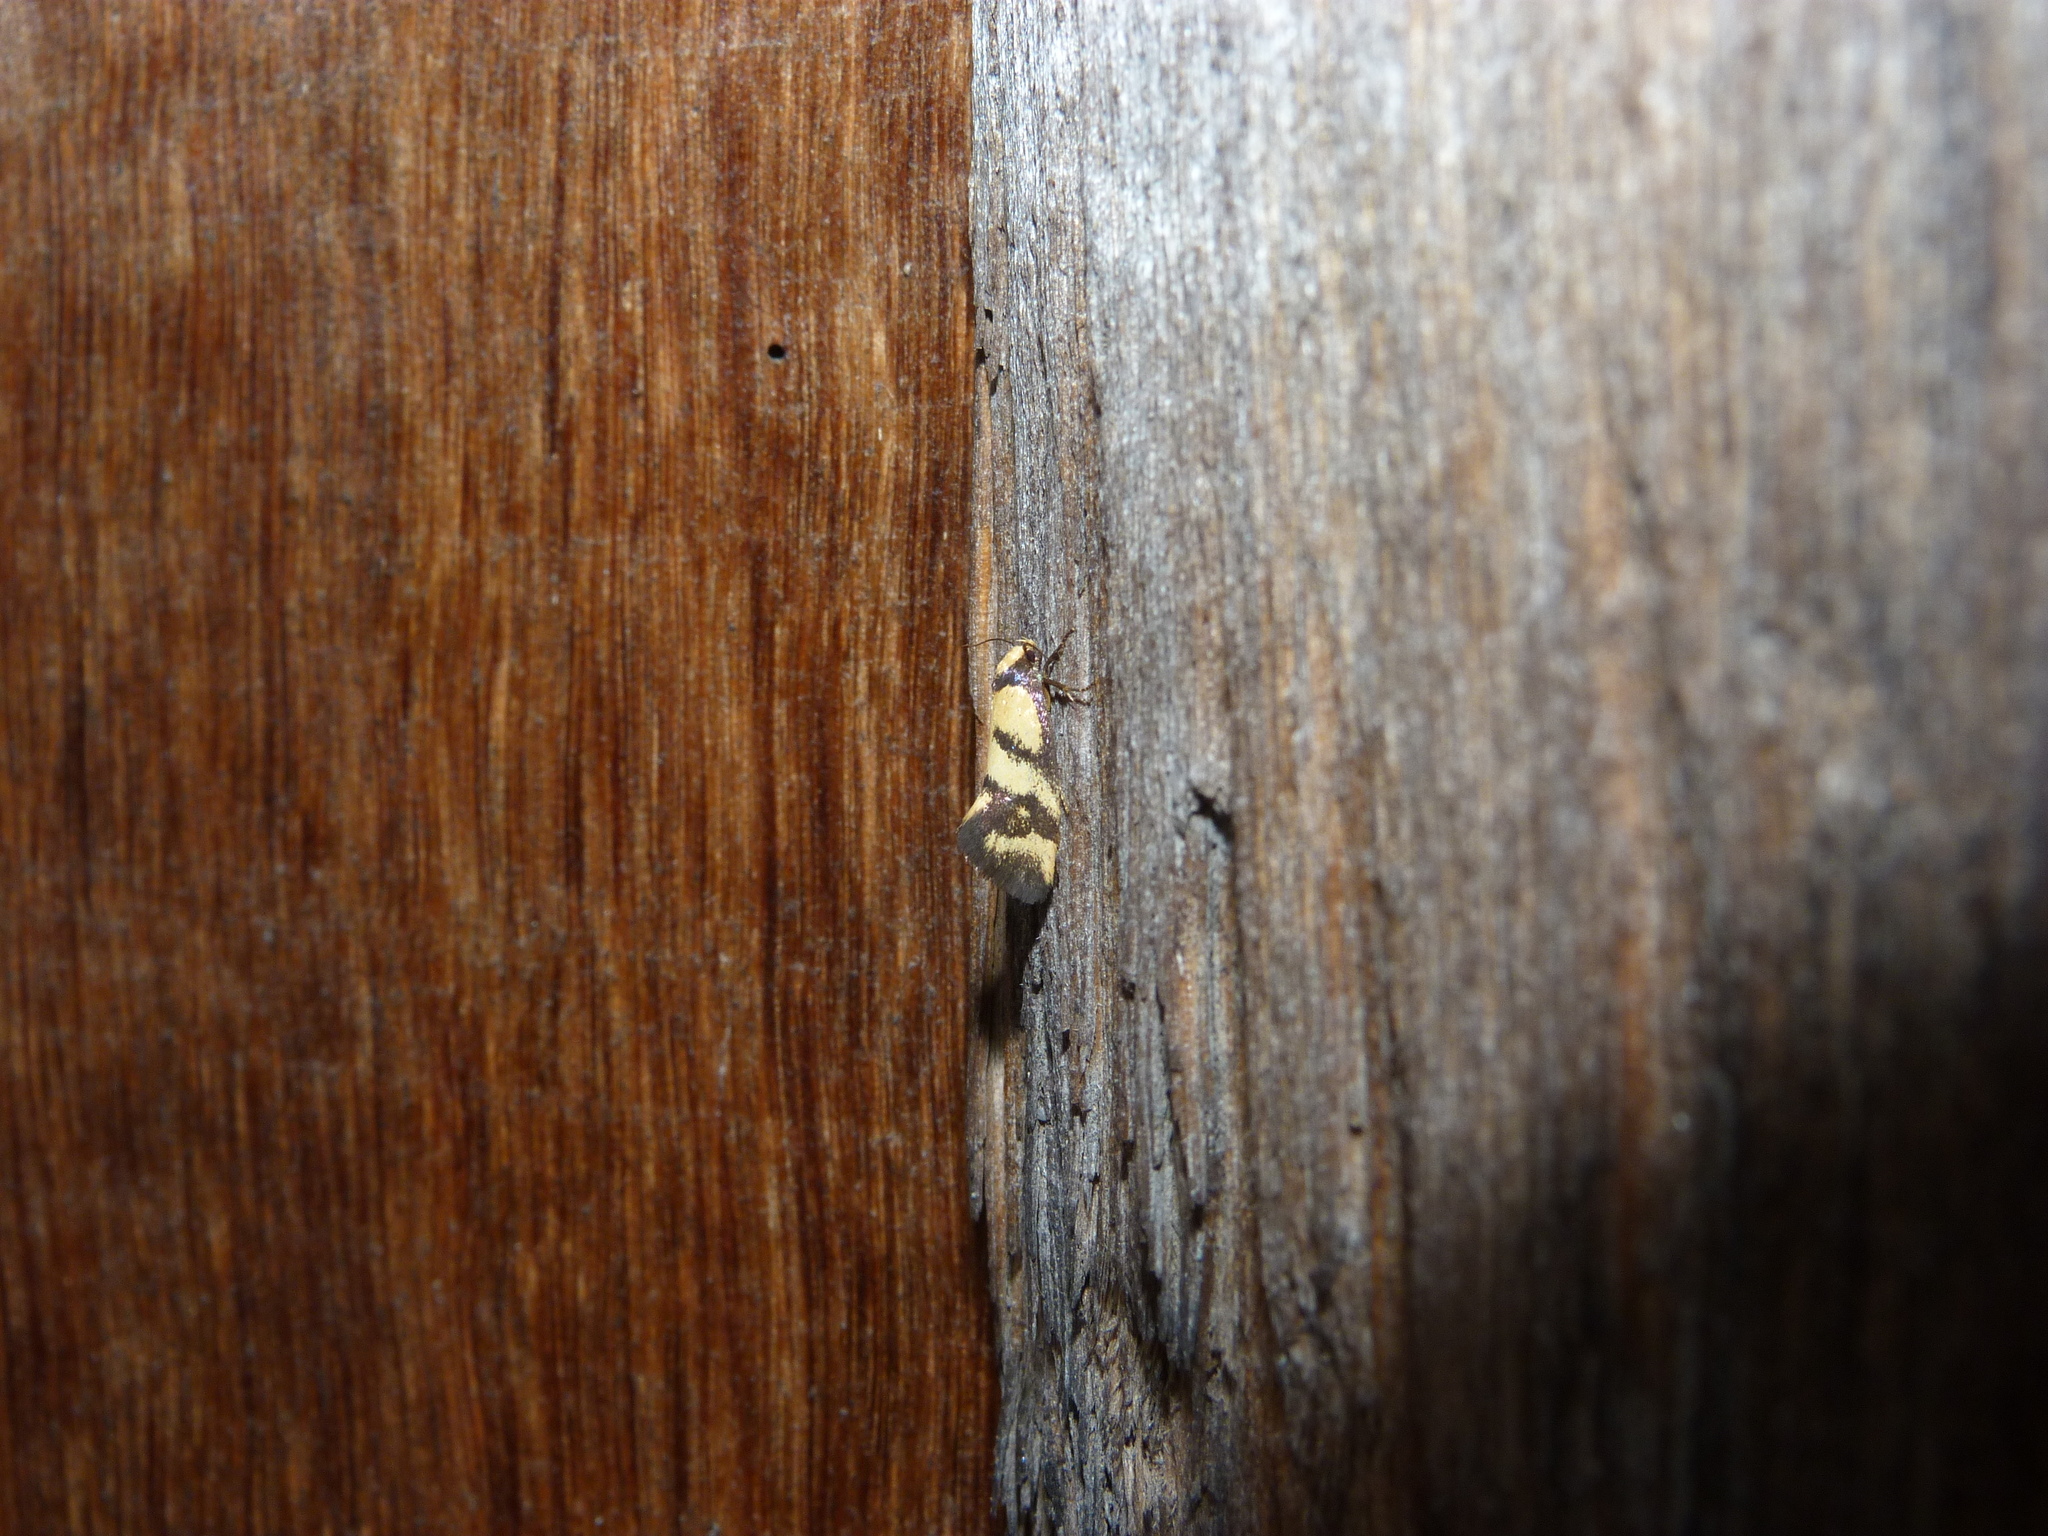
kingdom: Animalia
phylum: Arthropoda
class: Insecta
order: Lepidoptera
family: Oecophoridae
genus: Olbonoma
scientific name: Olbonoma triptycha
